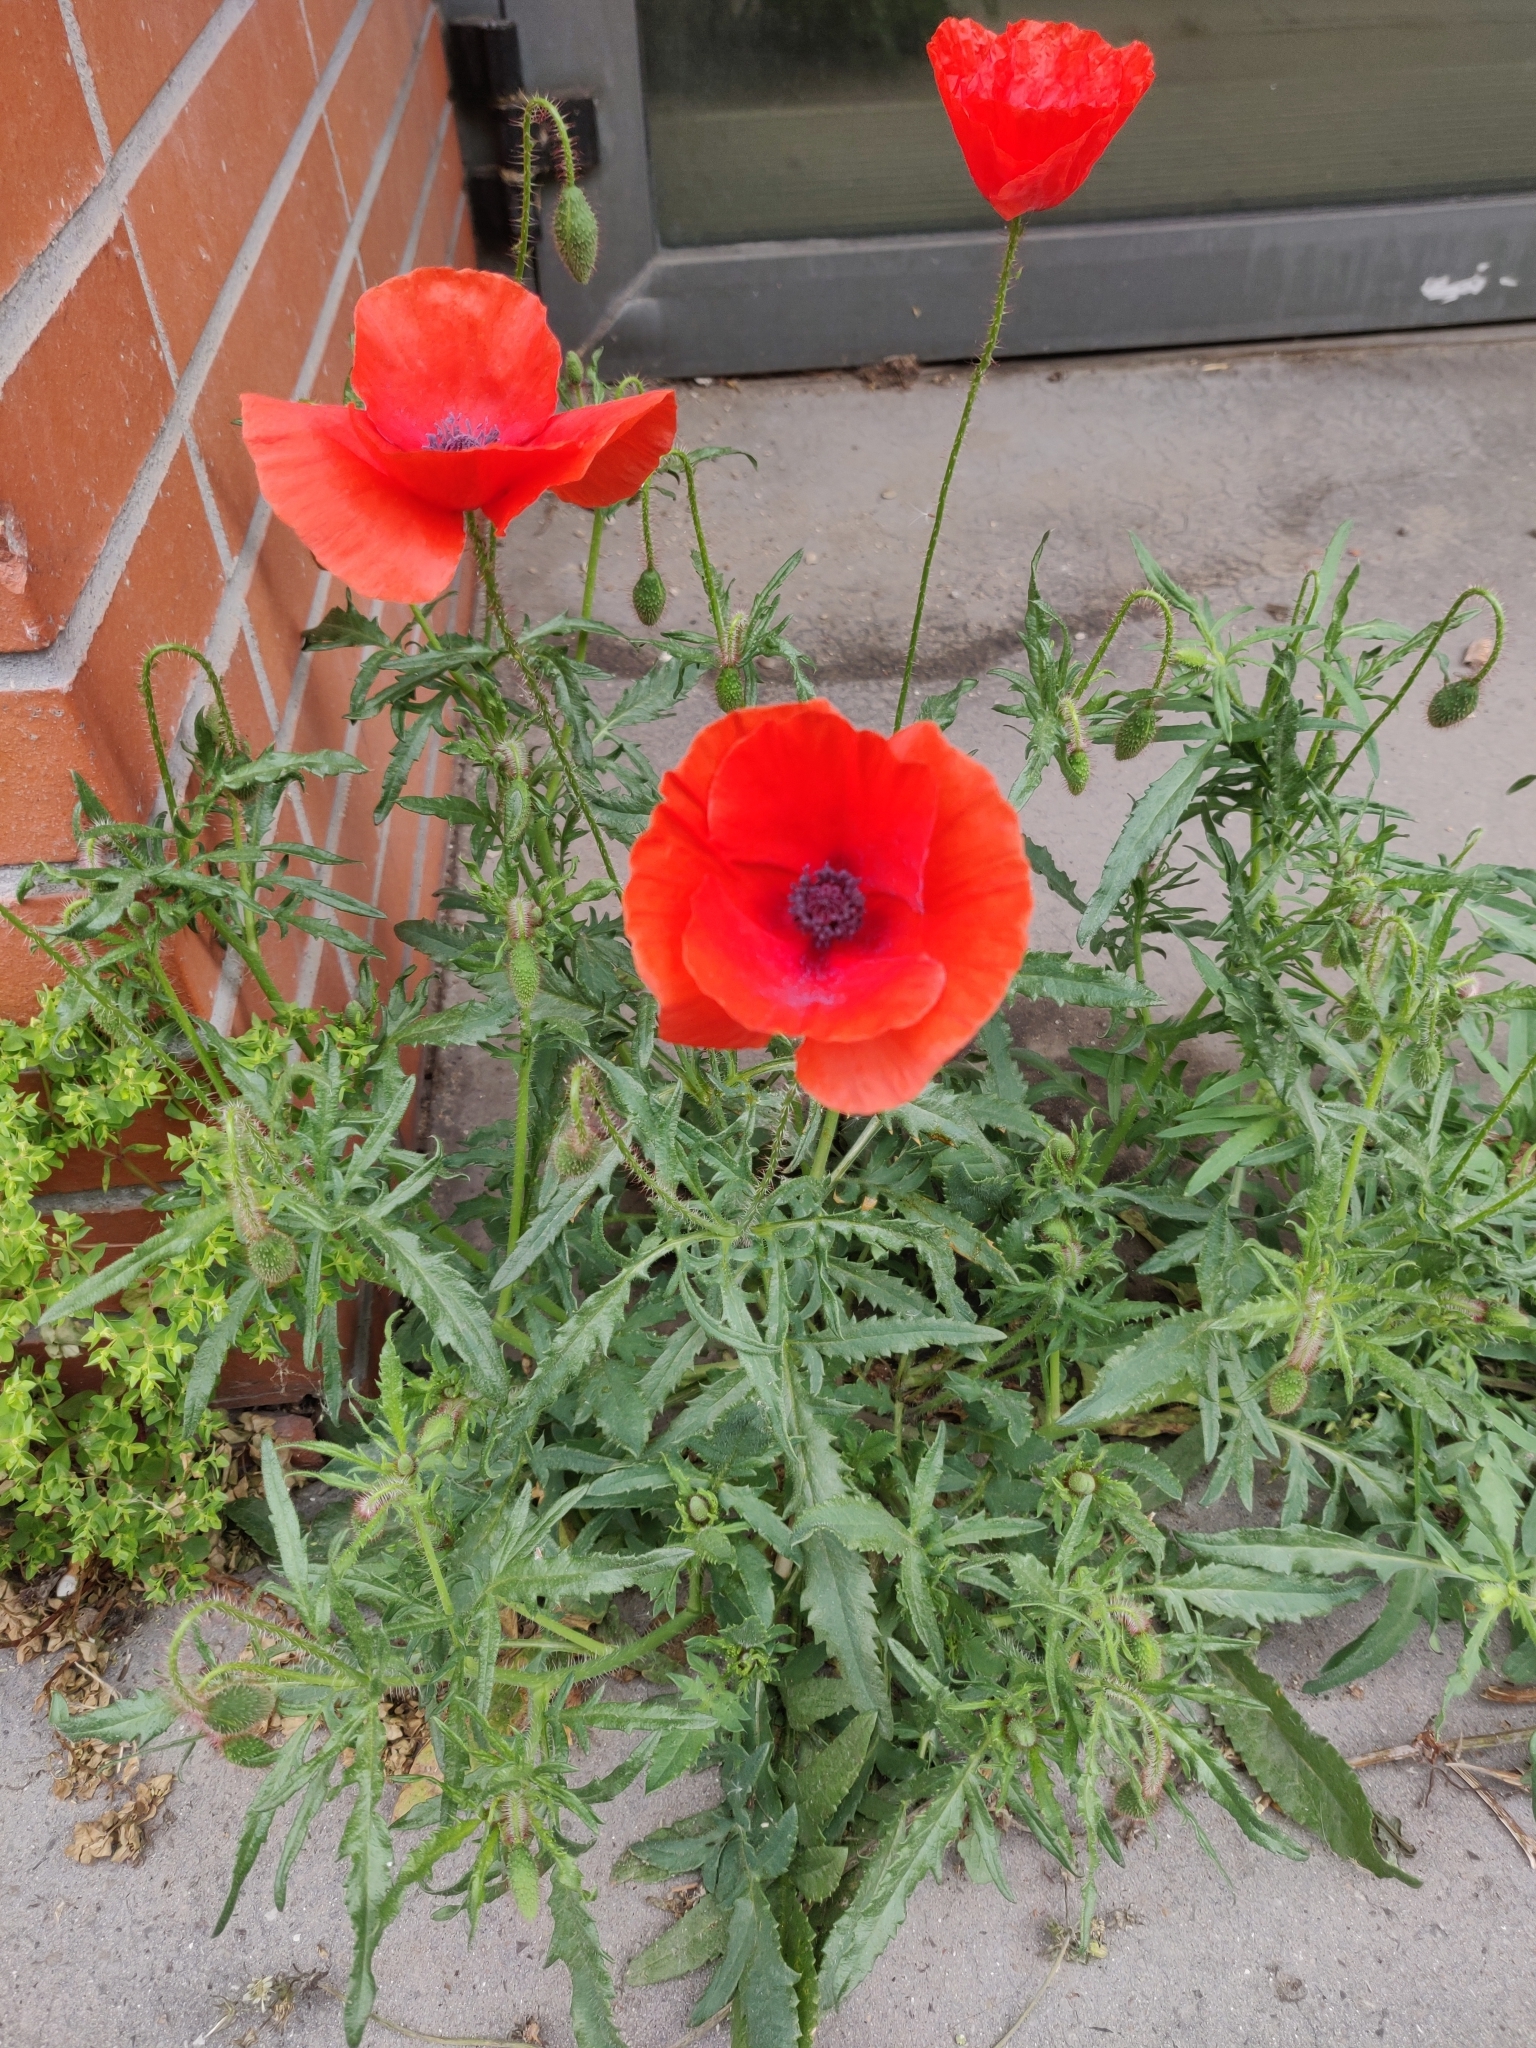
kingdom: Plantae
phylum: Tracheophyta
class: Magnoliopsida
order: Ranunculales
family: Papaveraceae
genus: Papaver
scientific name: Papaver rhoeas
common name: Corn poppy
